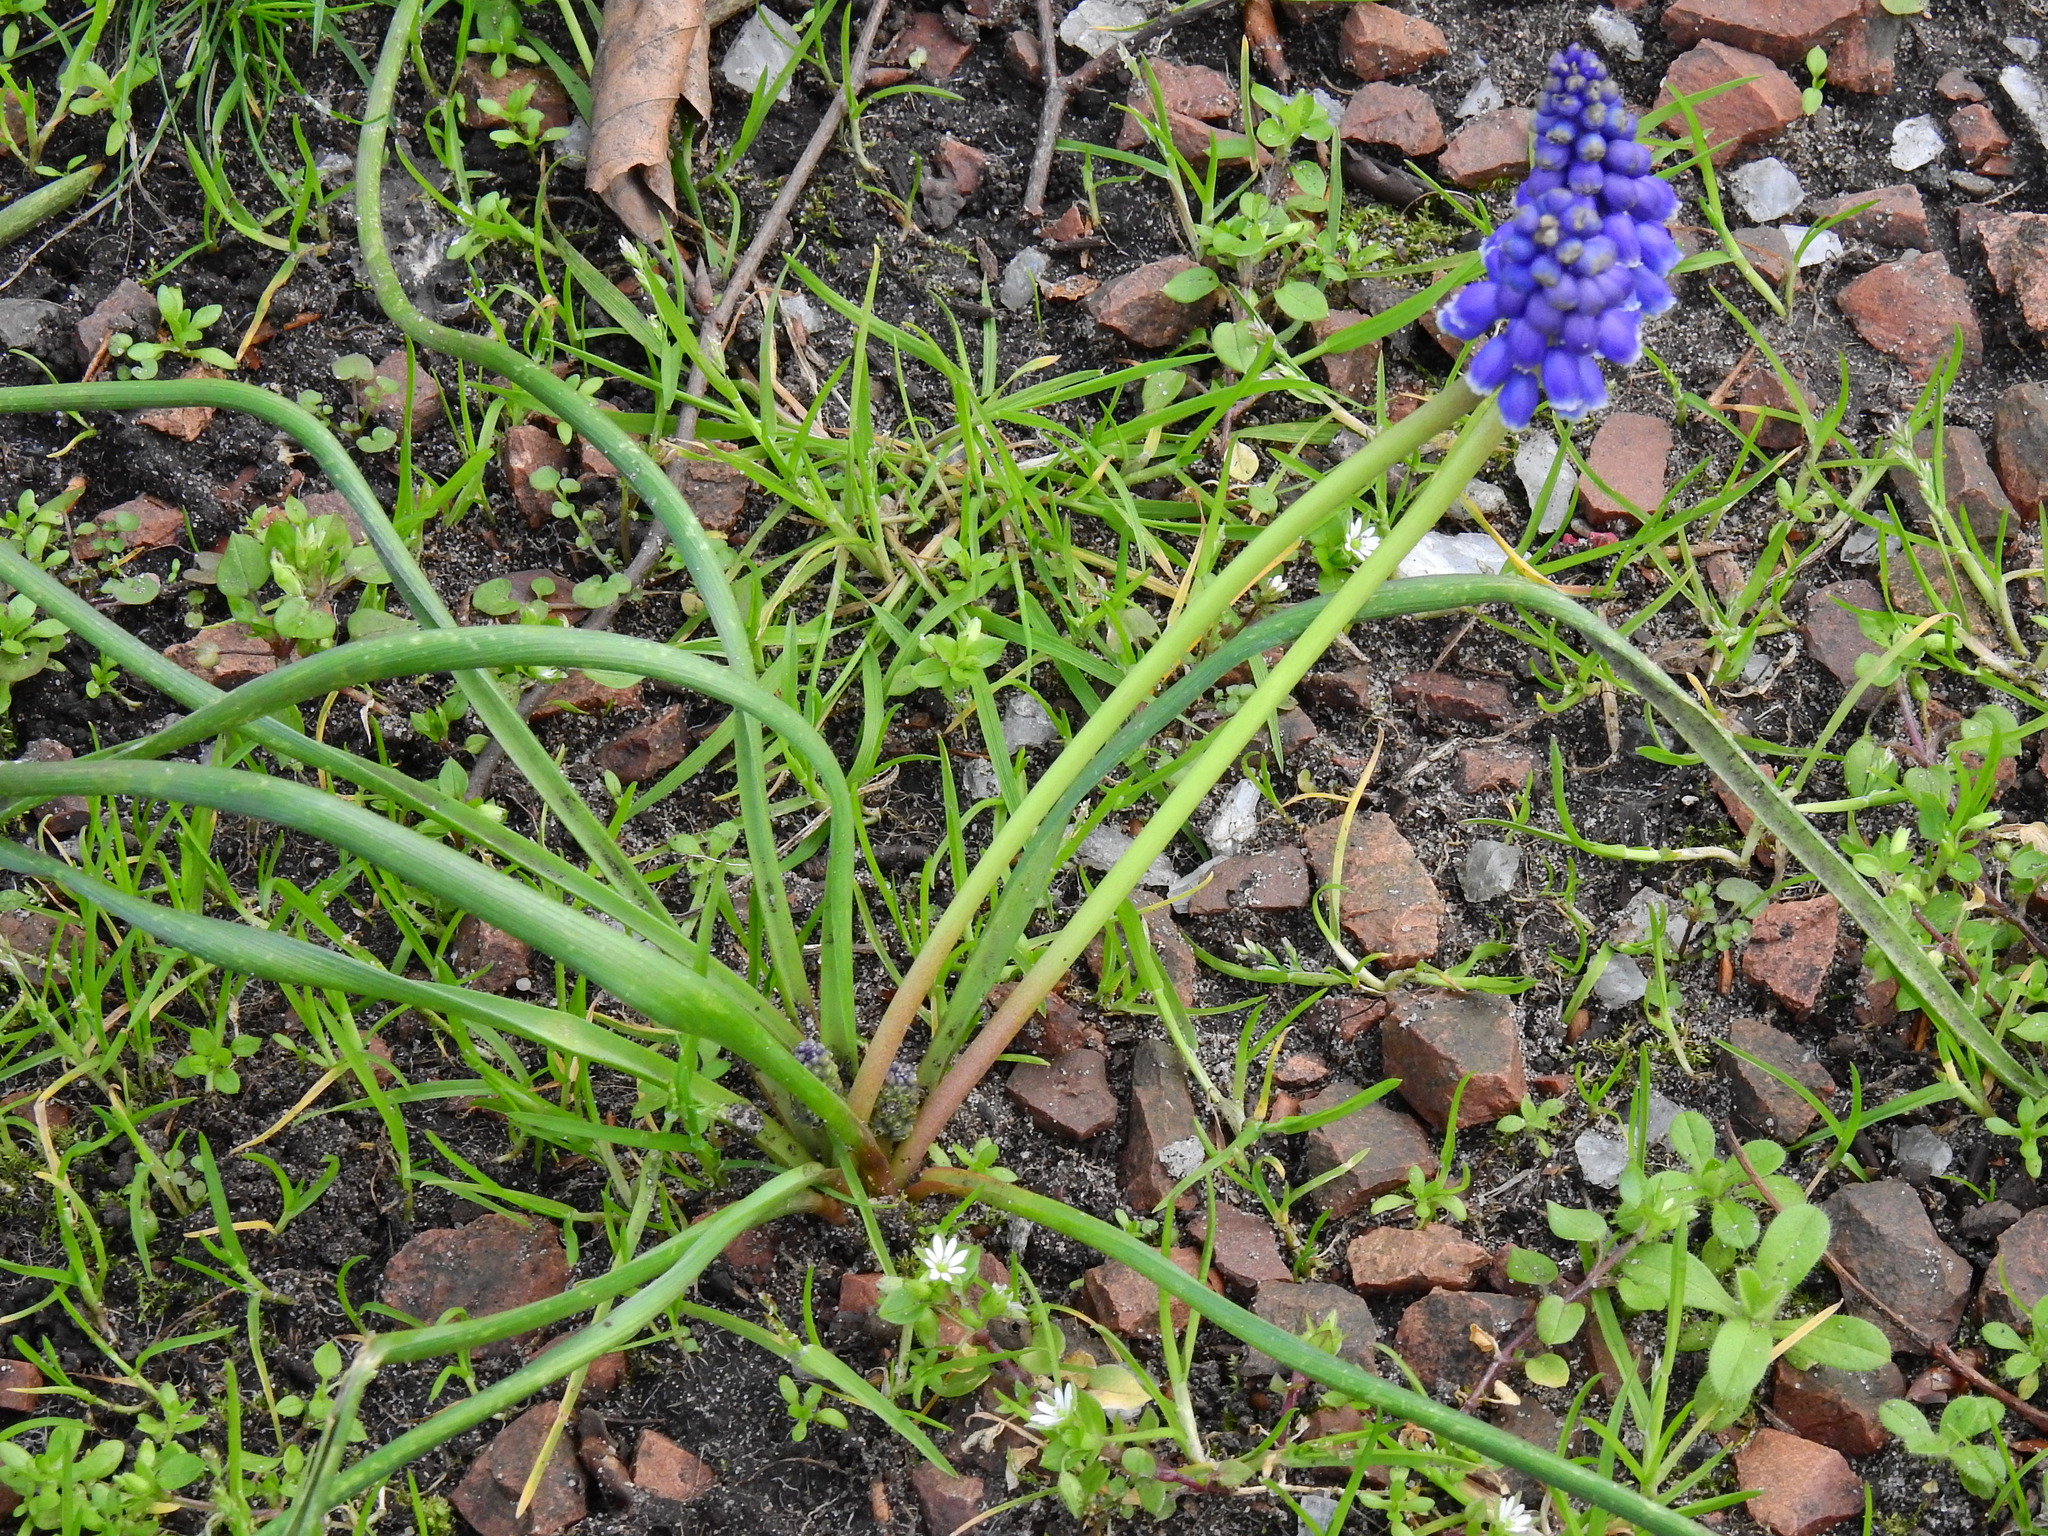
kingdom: Plantae
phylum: Tracheophyta
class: Liliopsida
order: Asparagales
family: Asparagaceae
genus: Muscari
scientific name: Muscari armeniacum
